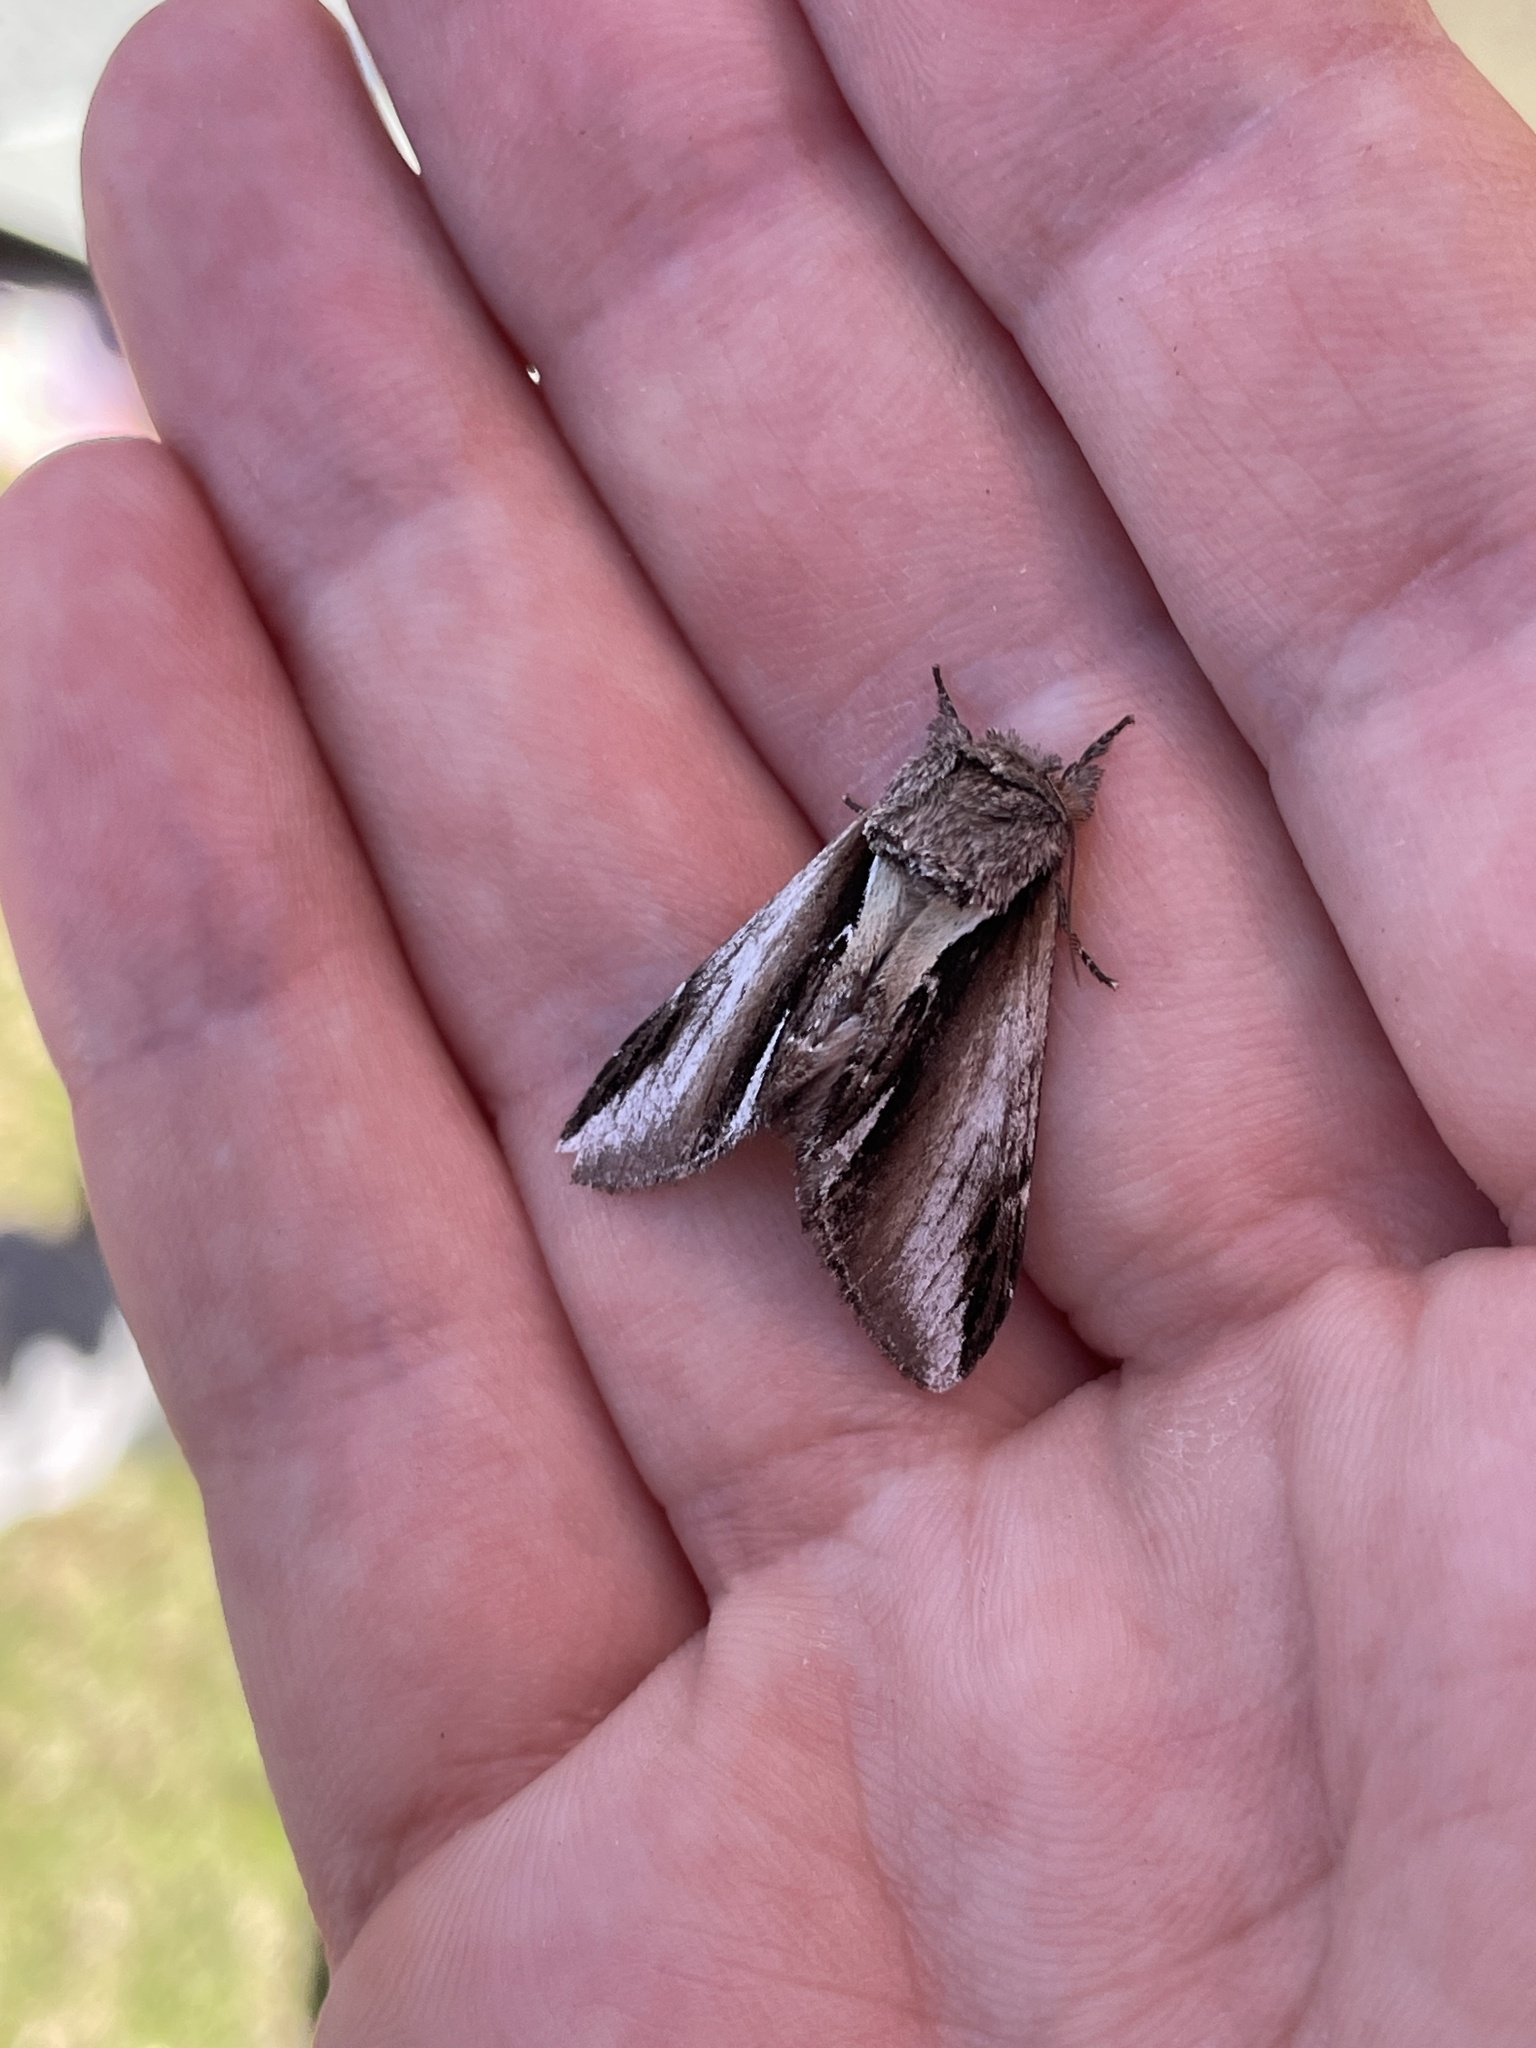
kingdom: Animalia
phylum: Arthropoda
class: Insecta
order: Lepidoptera
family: Notodontidae
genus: Pheosia
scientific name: Pheosia gnoma
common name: Lesser swallow prominent
